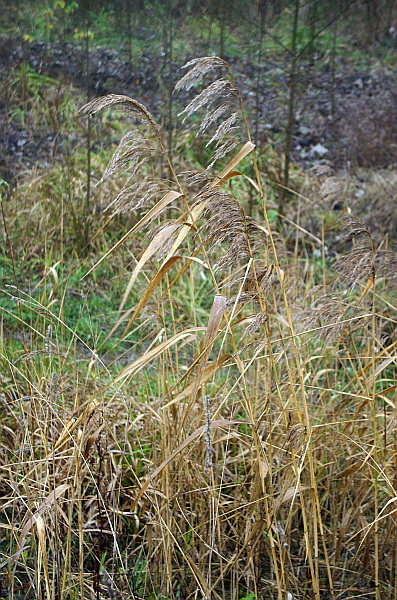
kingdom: Plantae
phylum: Tracheophyta
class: Liliopsida
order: Poales
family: Poaceae
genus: Phragmites
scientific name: Phragmites australis
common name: Common reed
